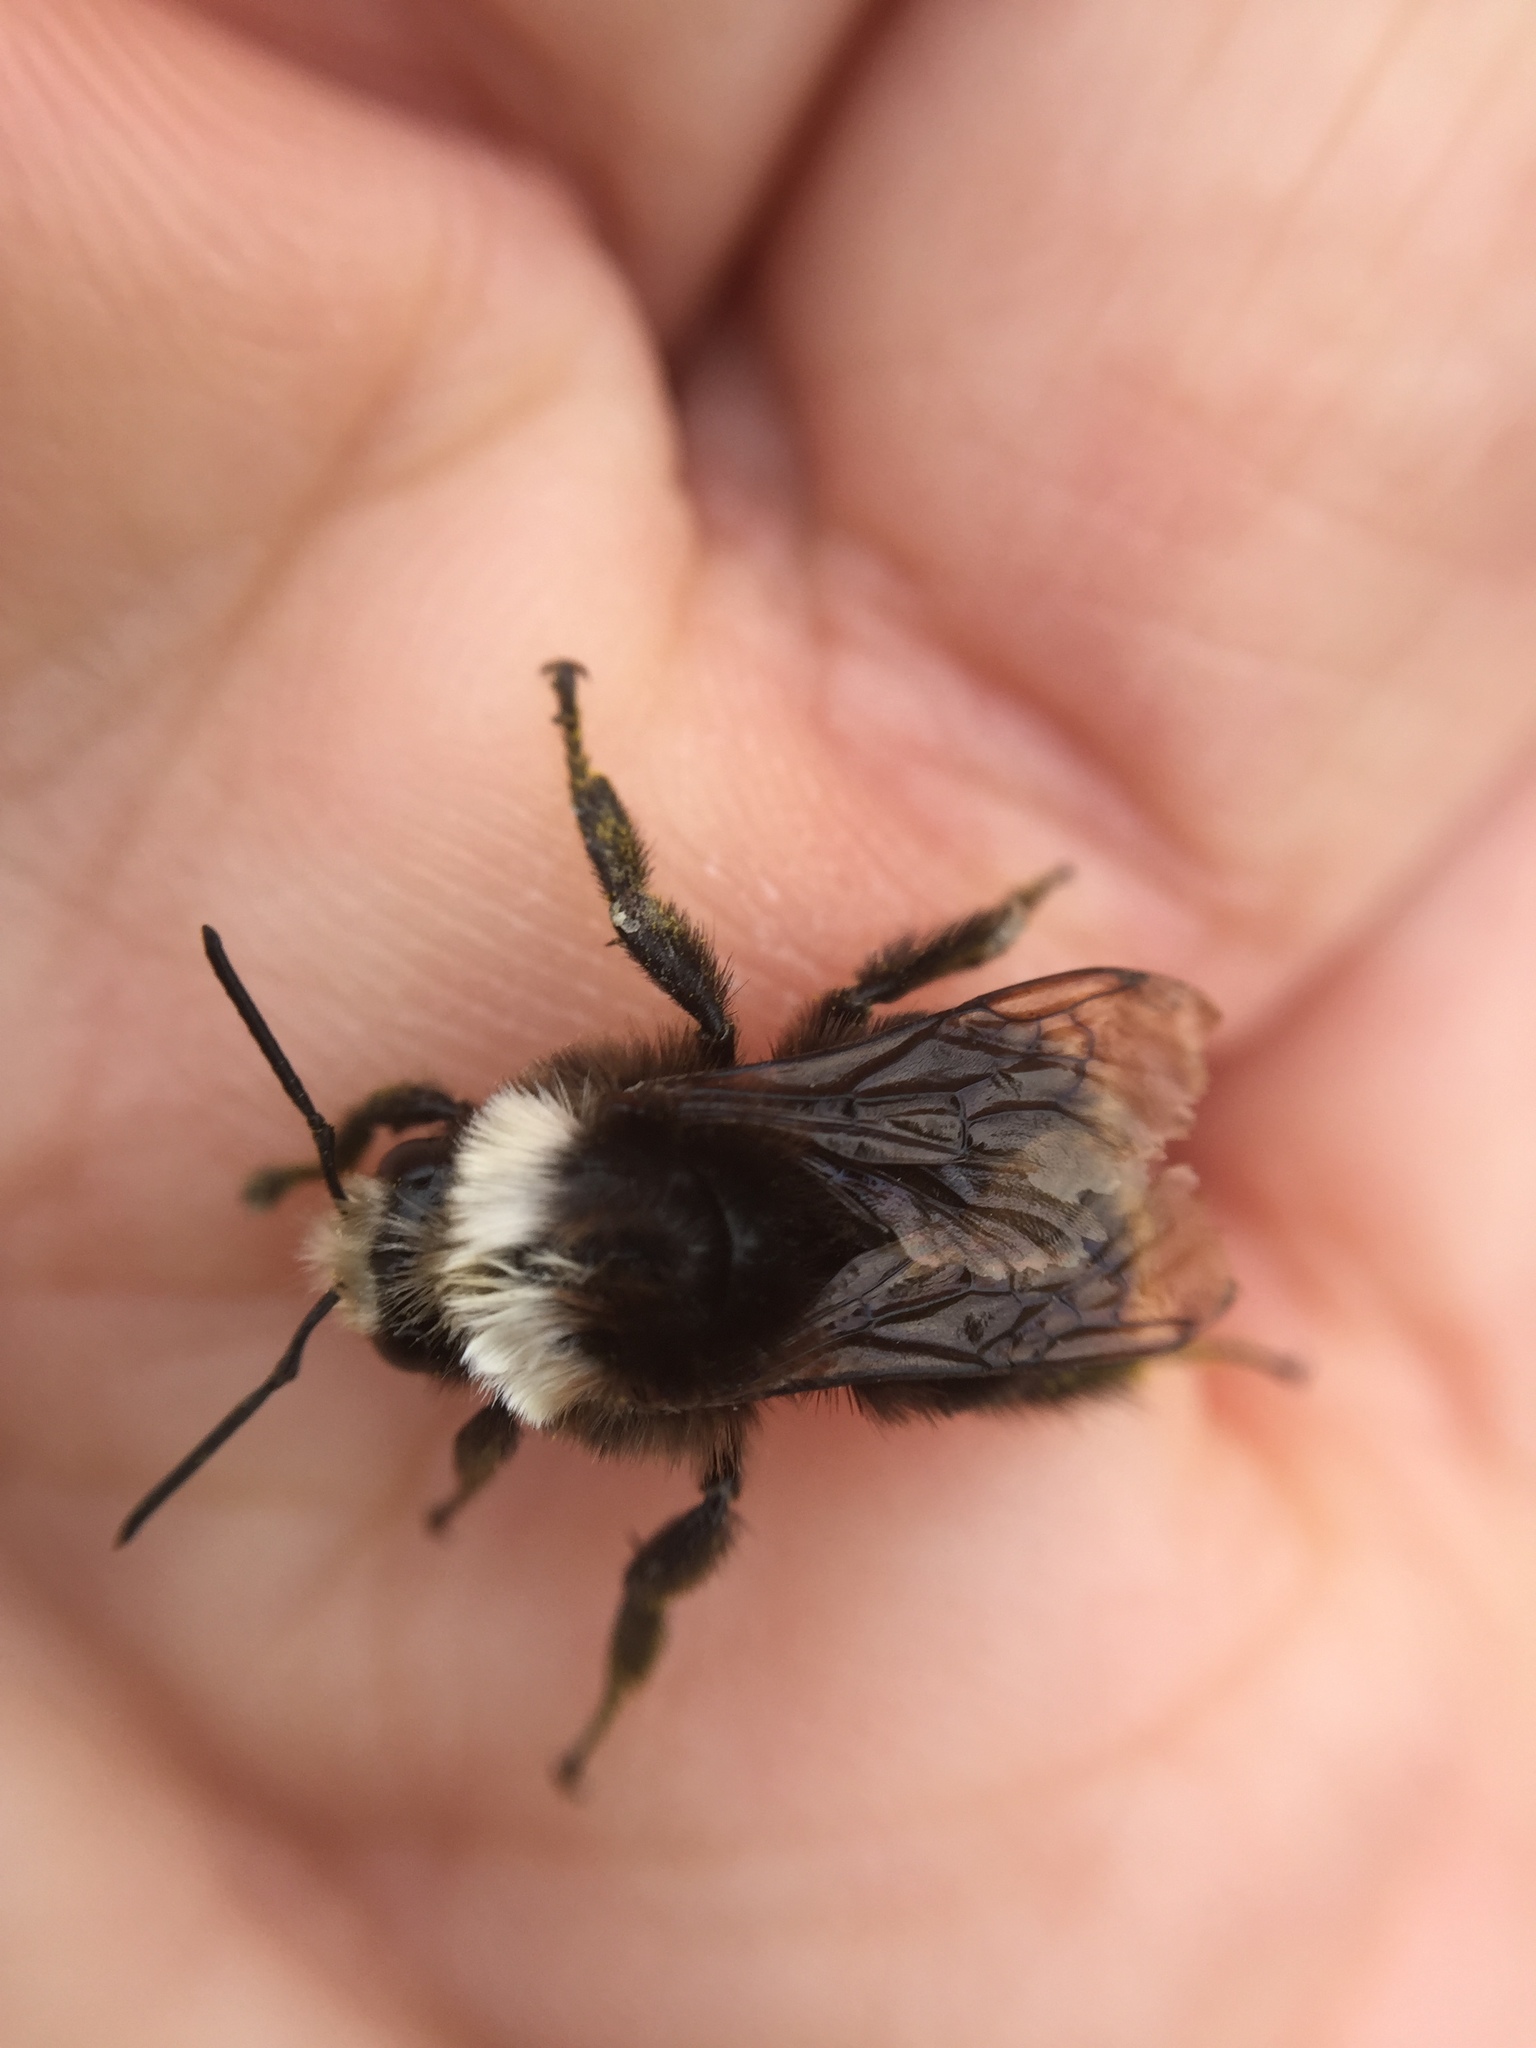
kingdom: Animalia
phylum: Arthropoda
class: Insecta
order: Hymenoptera
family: Apidae
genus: Pyrobombus
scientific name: Pyrobombus
